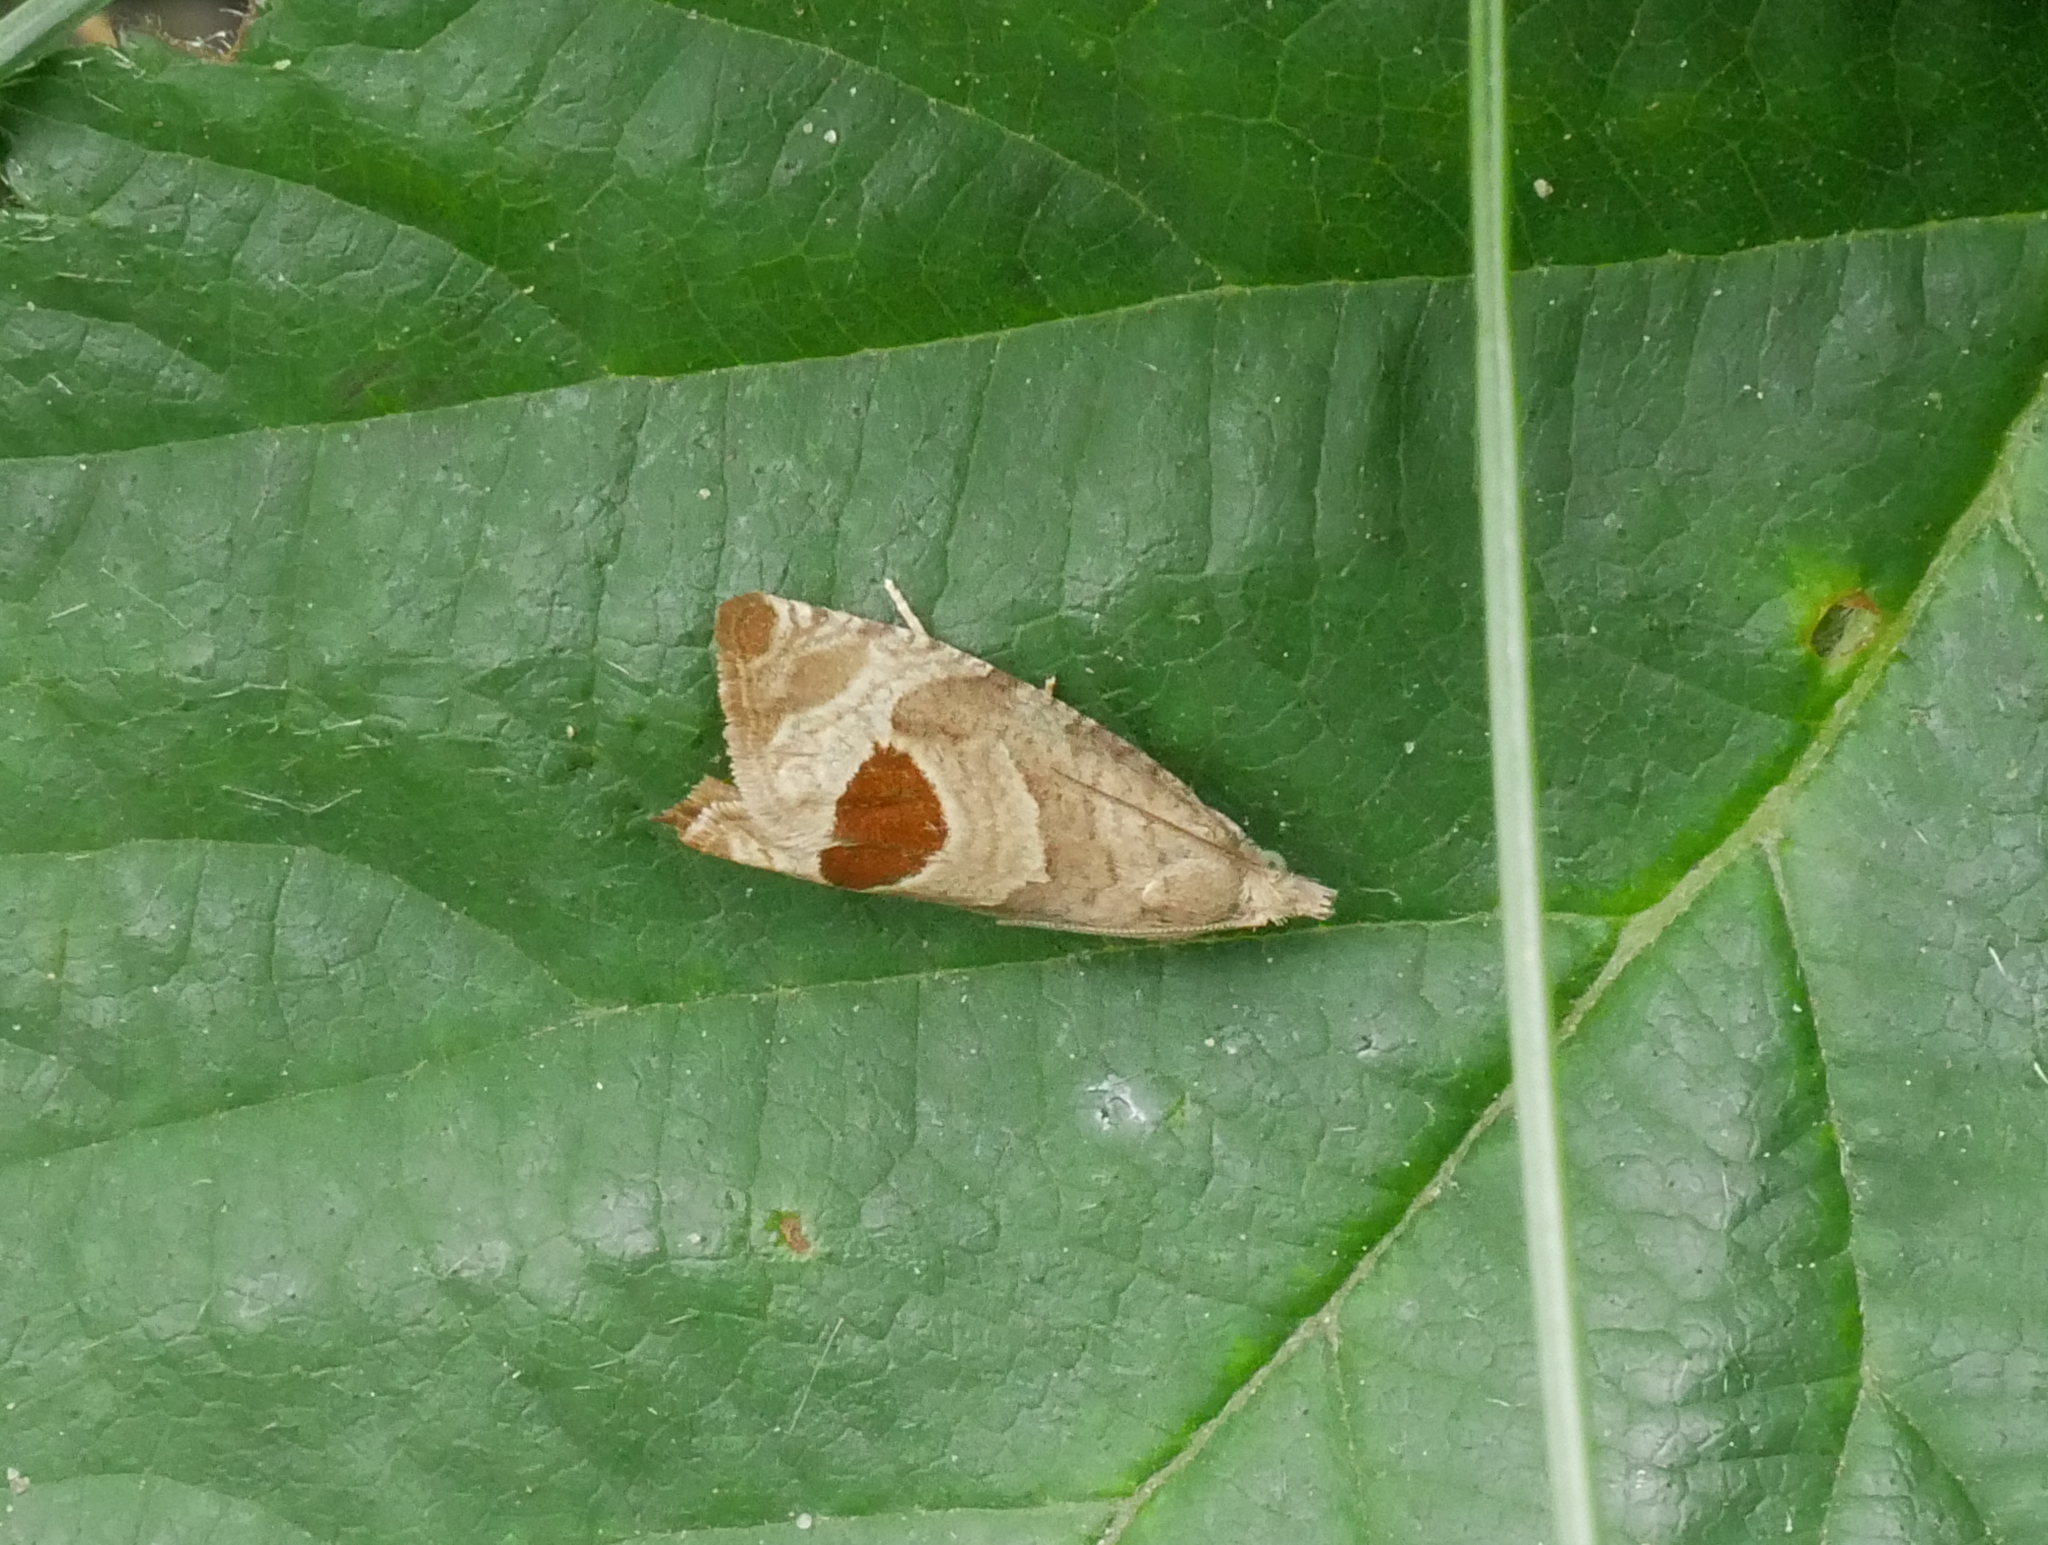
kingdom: Animalia
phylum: Arthropoda
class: Insecta
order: Lepidoptera
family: Tortricidae
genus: Notocelia
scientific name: Notocelia uddmanniana
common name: Bramble shoot moth
